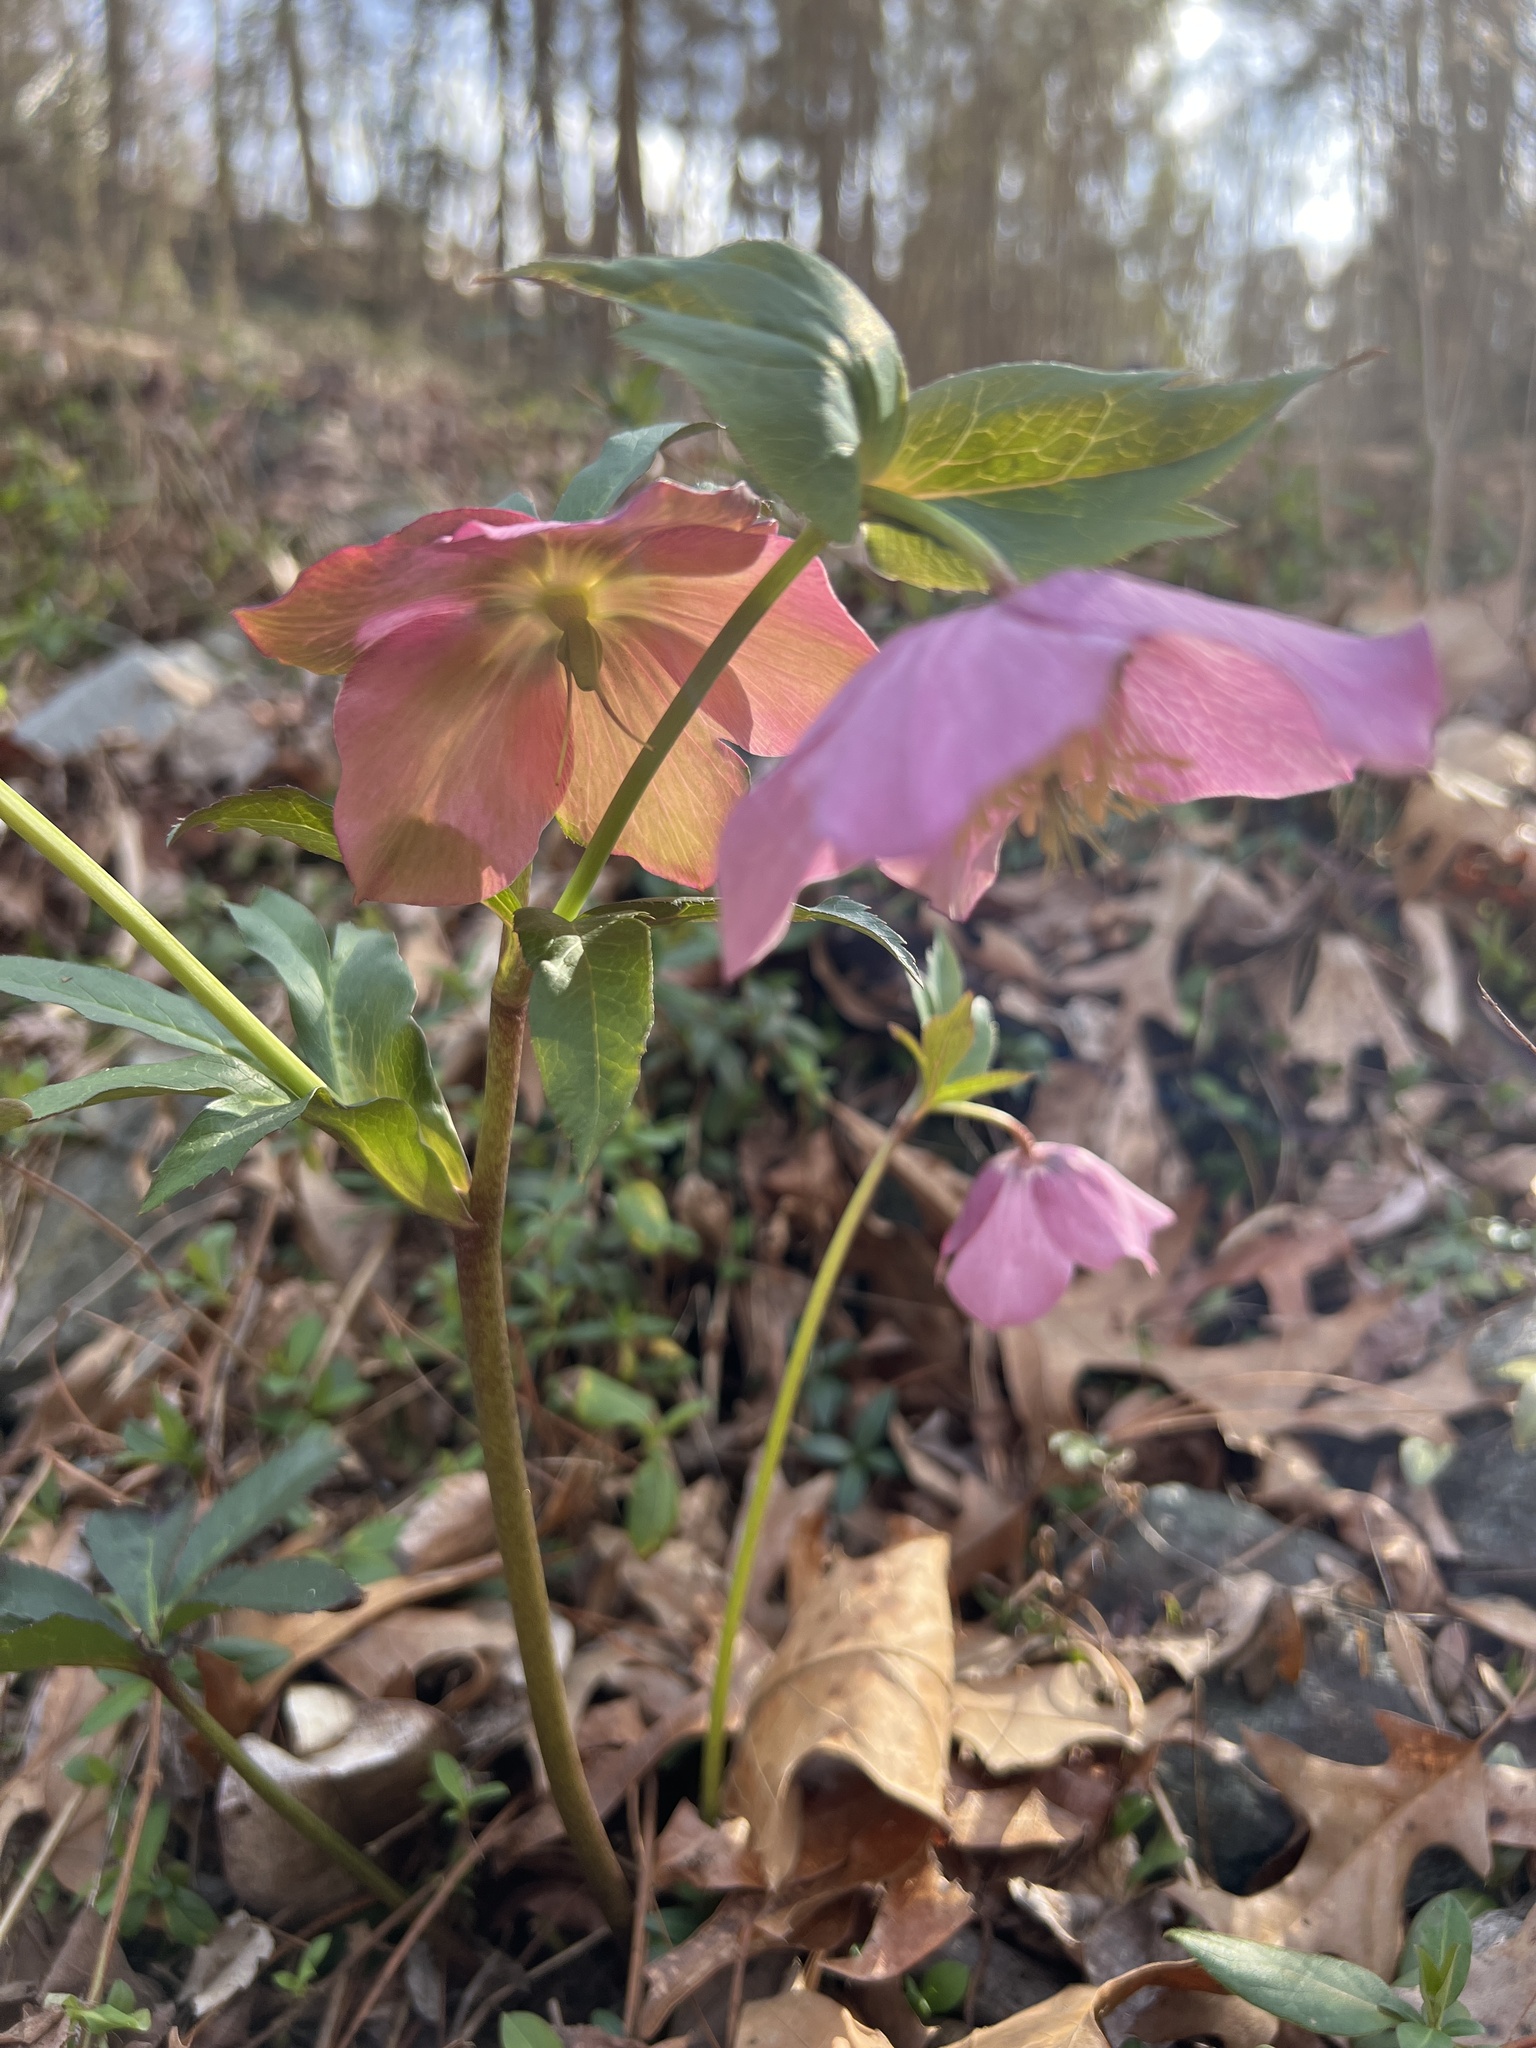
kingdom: Plantae
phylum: Tracheophyta
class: Magnoliopsida
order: Ranunculales
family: Ranunculaceae
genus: Helleborus
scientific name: Helleborus orientalis
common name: Lenten-rose
